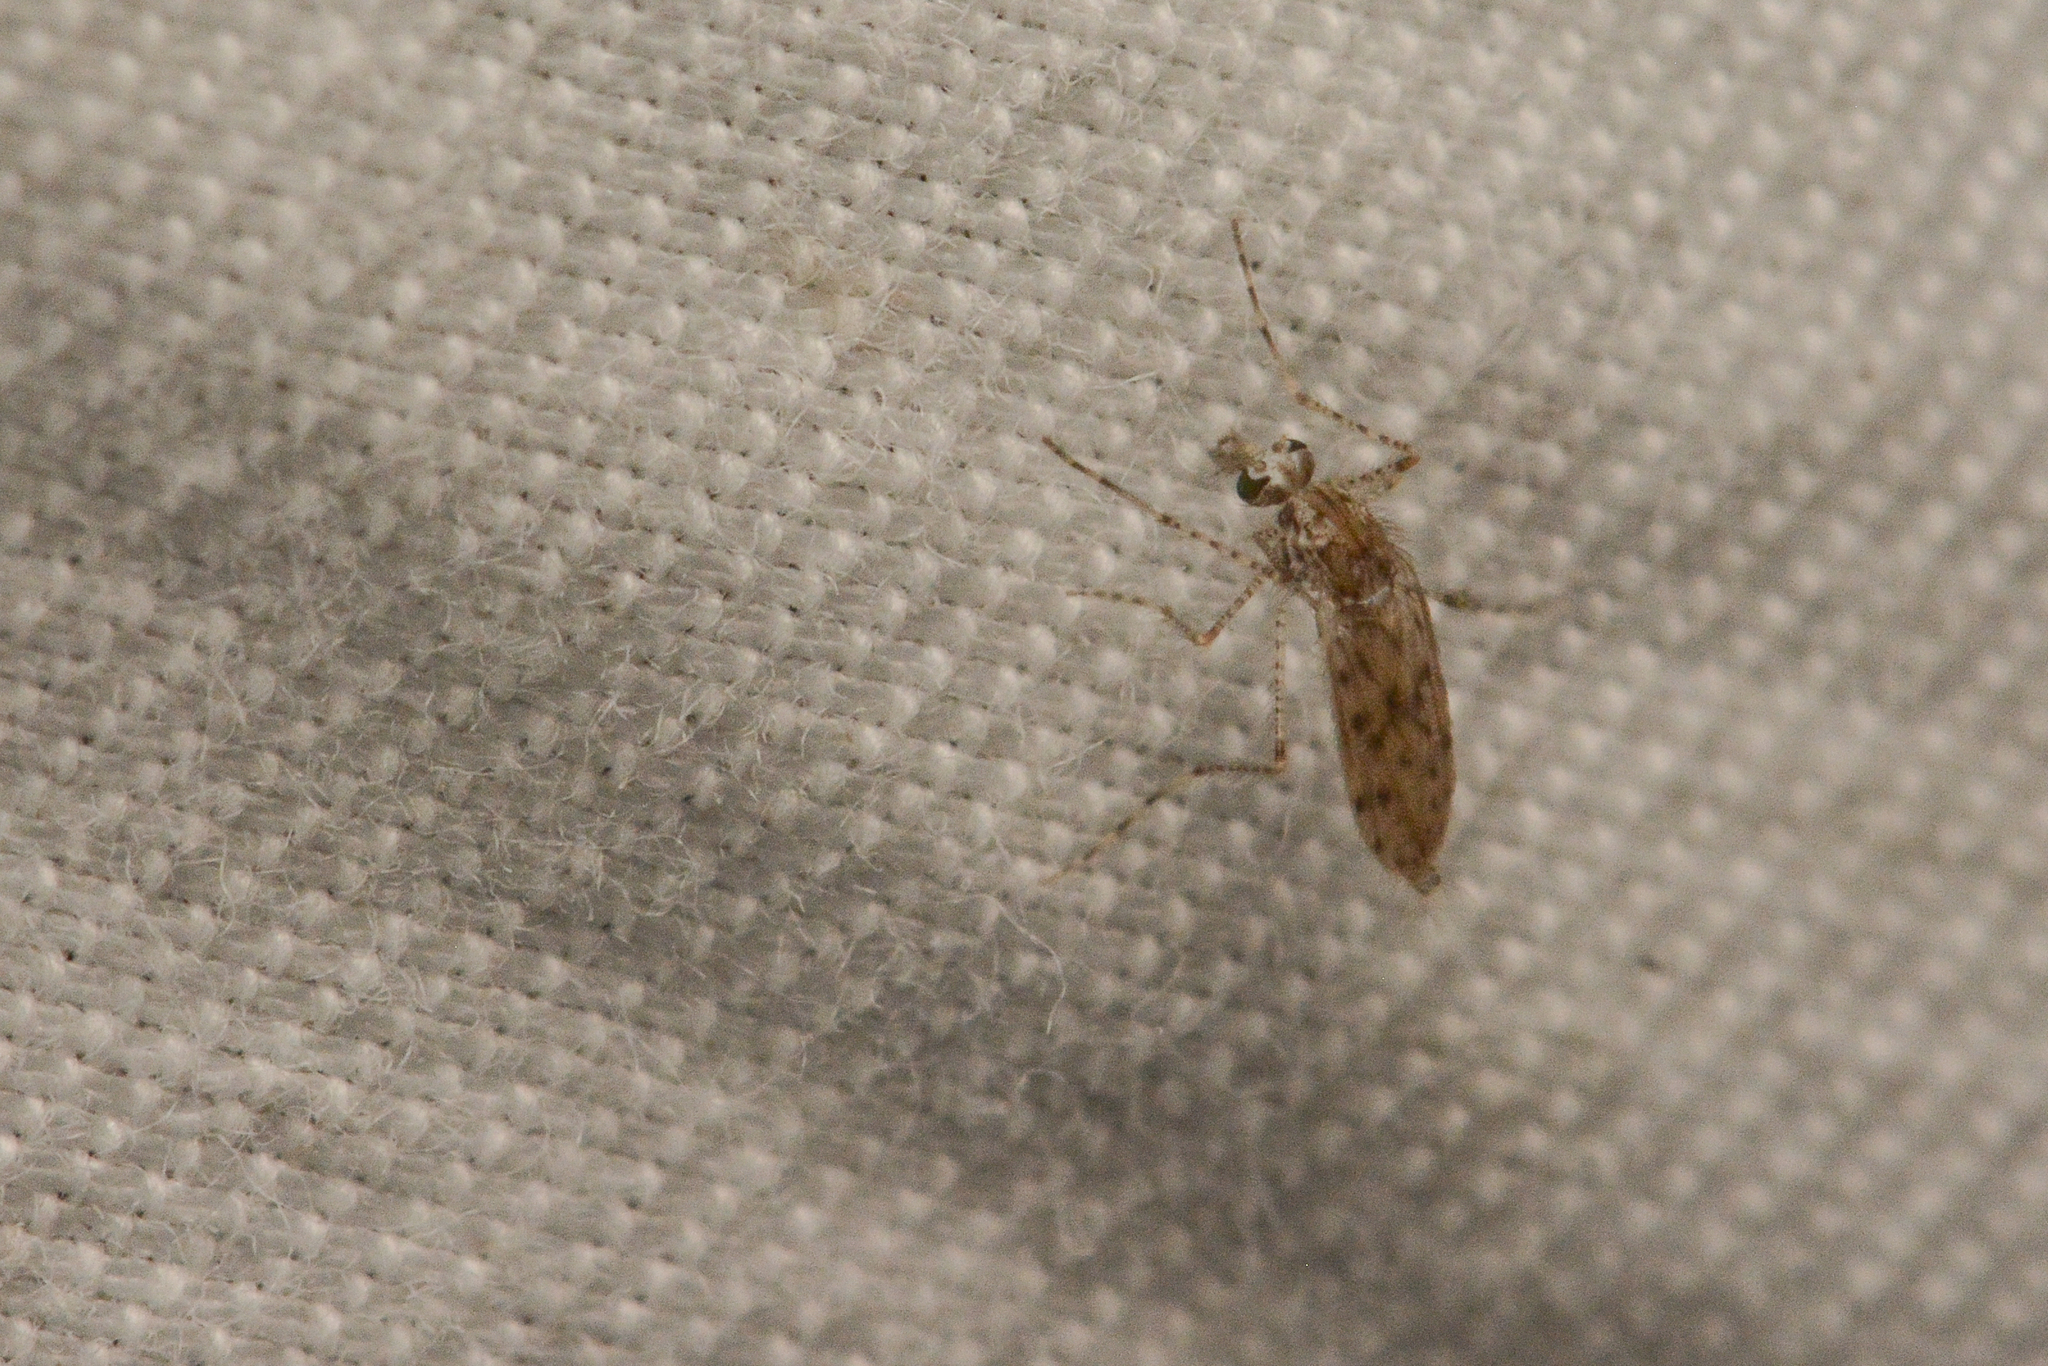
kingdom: Animalia
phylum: Arthropoda
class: Insecta
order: Diptera
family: Chaoboridae
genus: Chaoborus
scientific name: Chaoborus punctipennis
